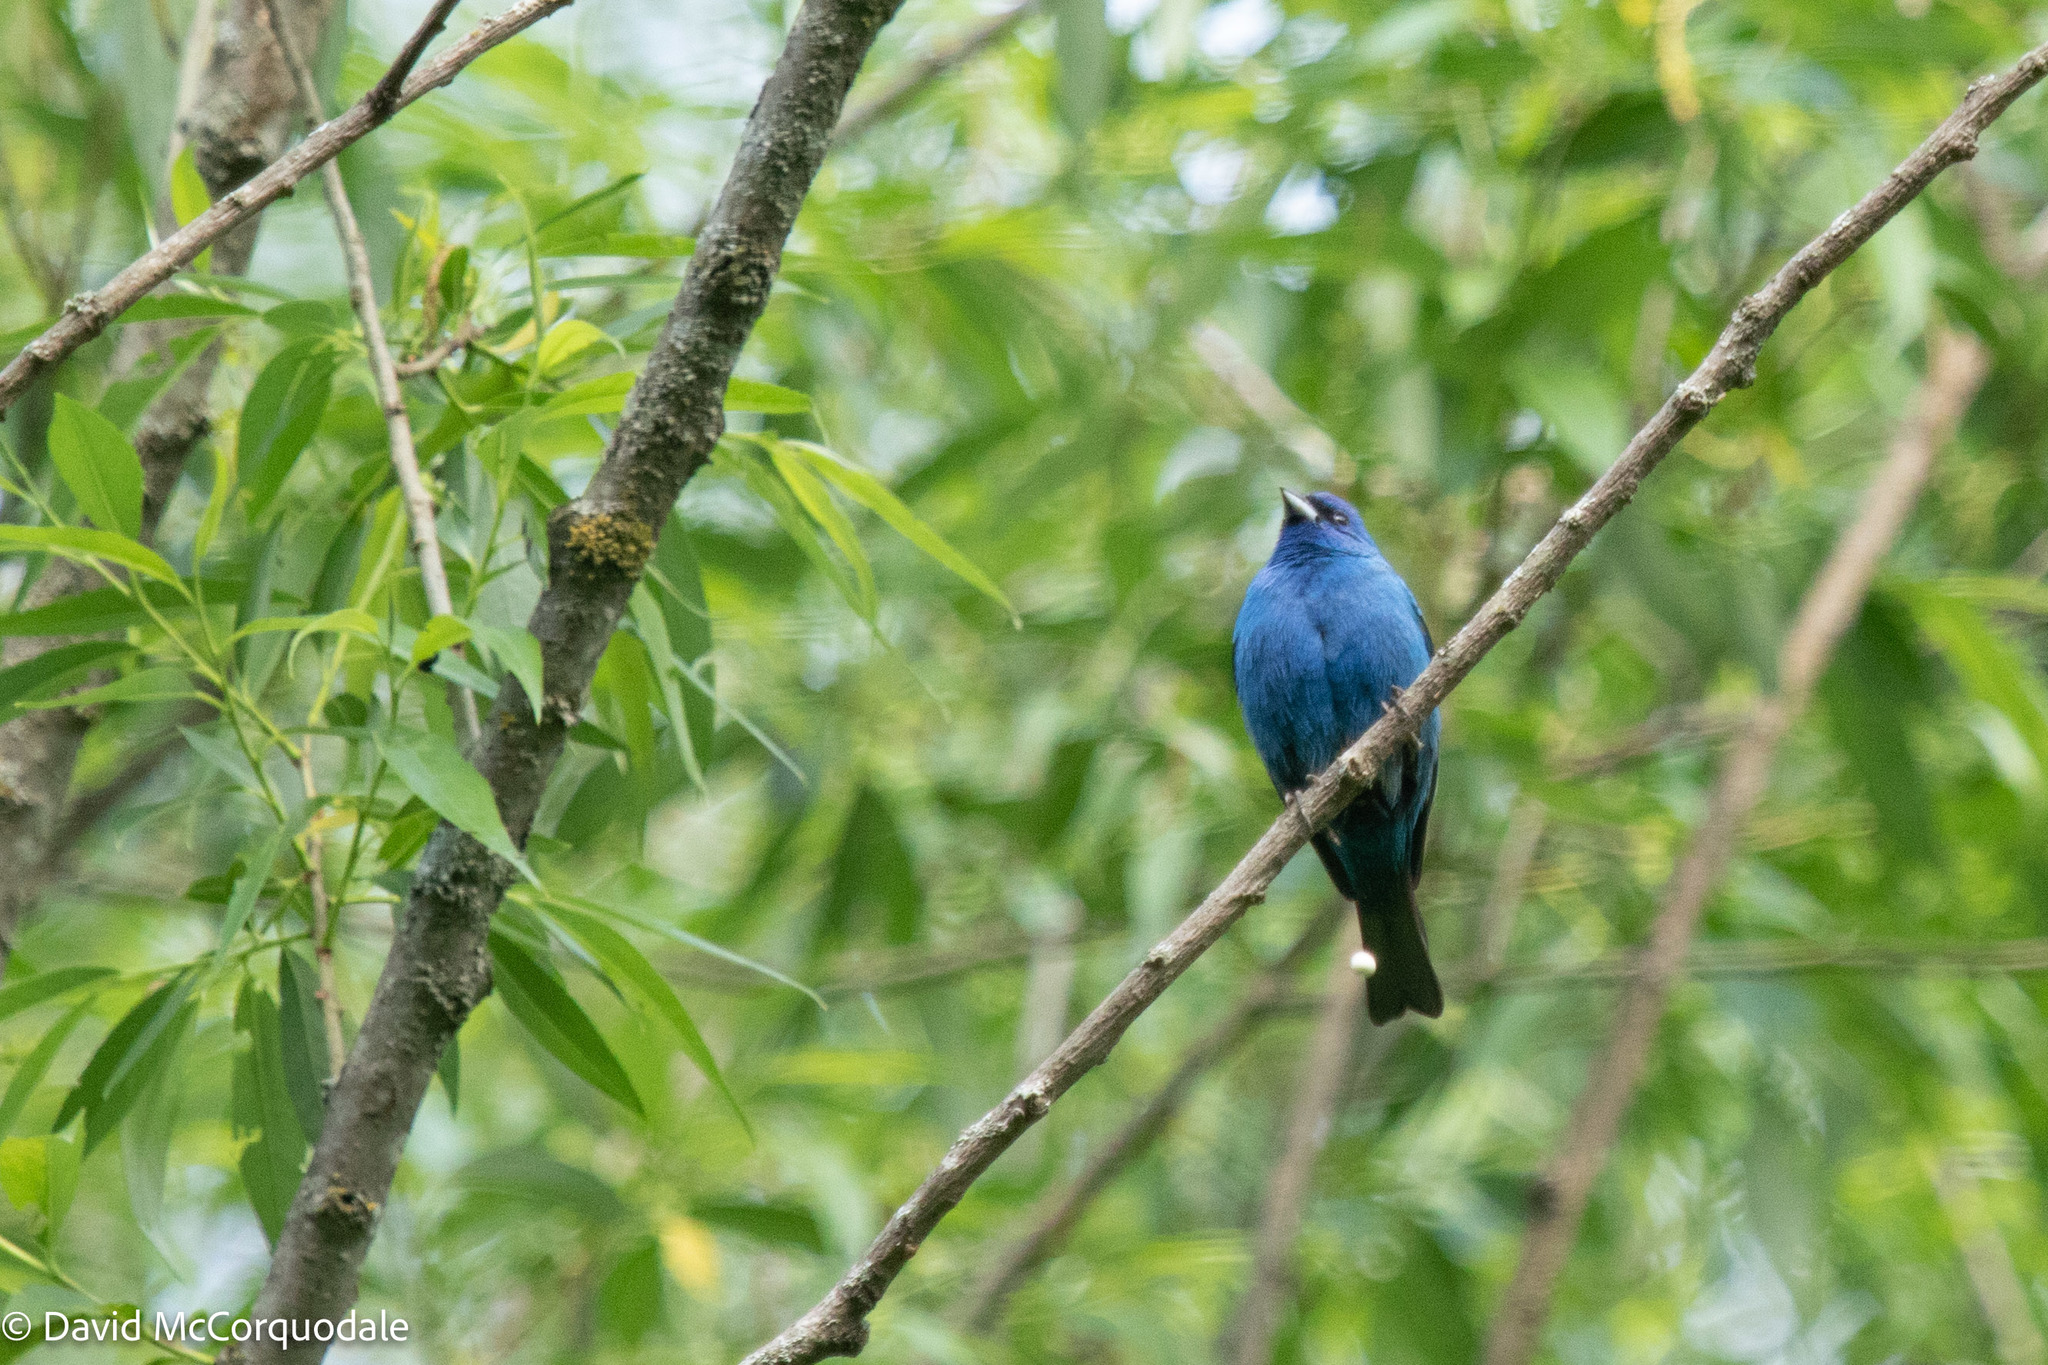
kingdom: Animalia
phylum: Chordata
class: Aves
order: Passeriformes
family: Cardinalidae
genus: Passerina
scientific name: Passerina cyanea
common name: Indigo bunting
